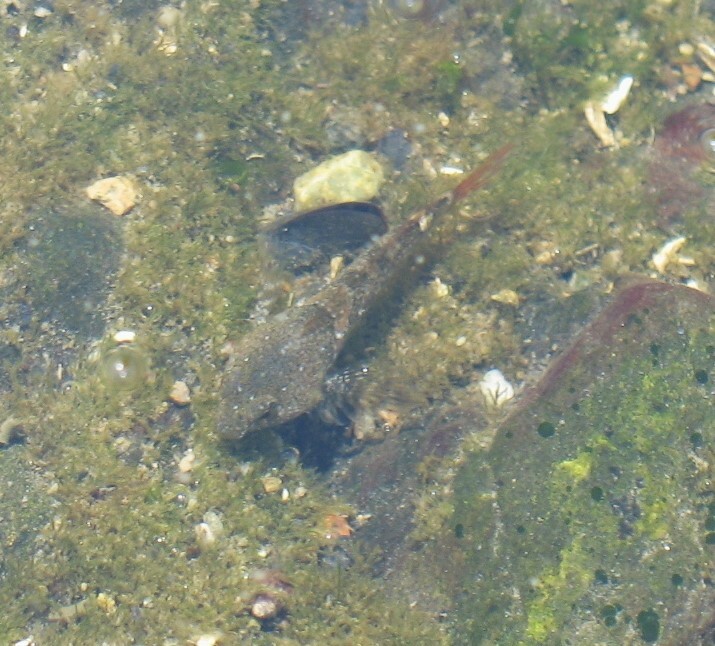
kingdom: Animalia
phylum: Chordata
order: Scorpaeniformes
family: Cottidae
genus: Oligocottus
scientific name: Oligocottus maculosus
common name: Tidepool sculpin
